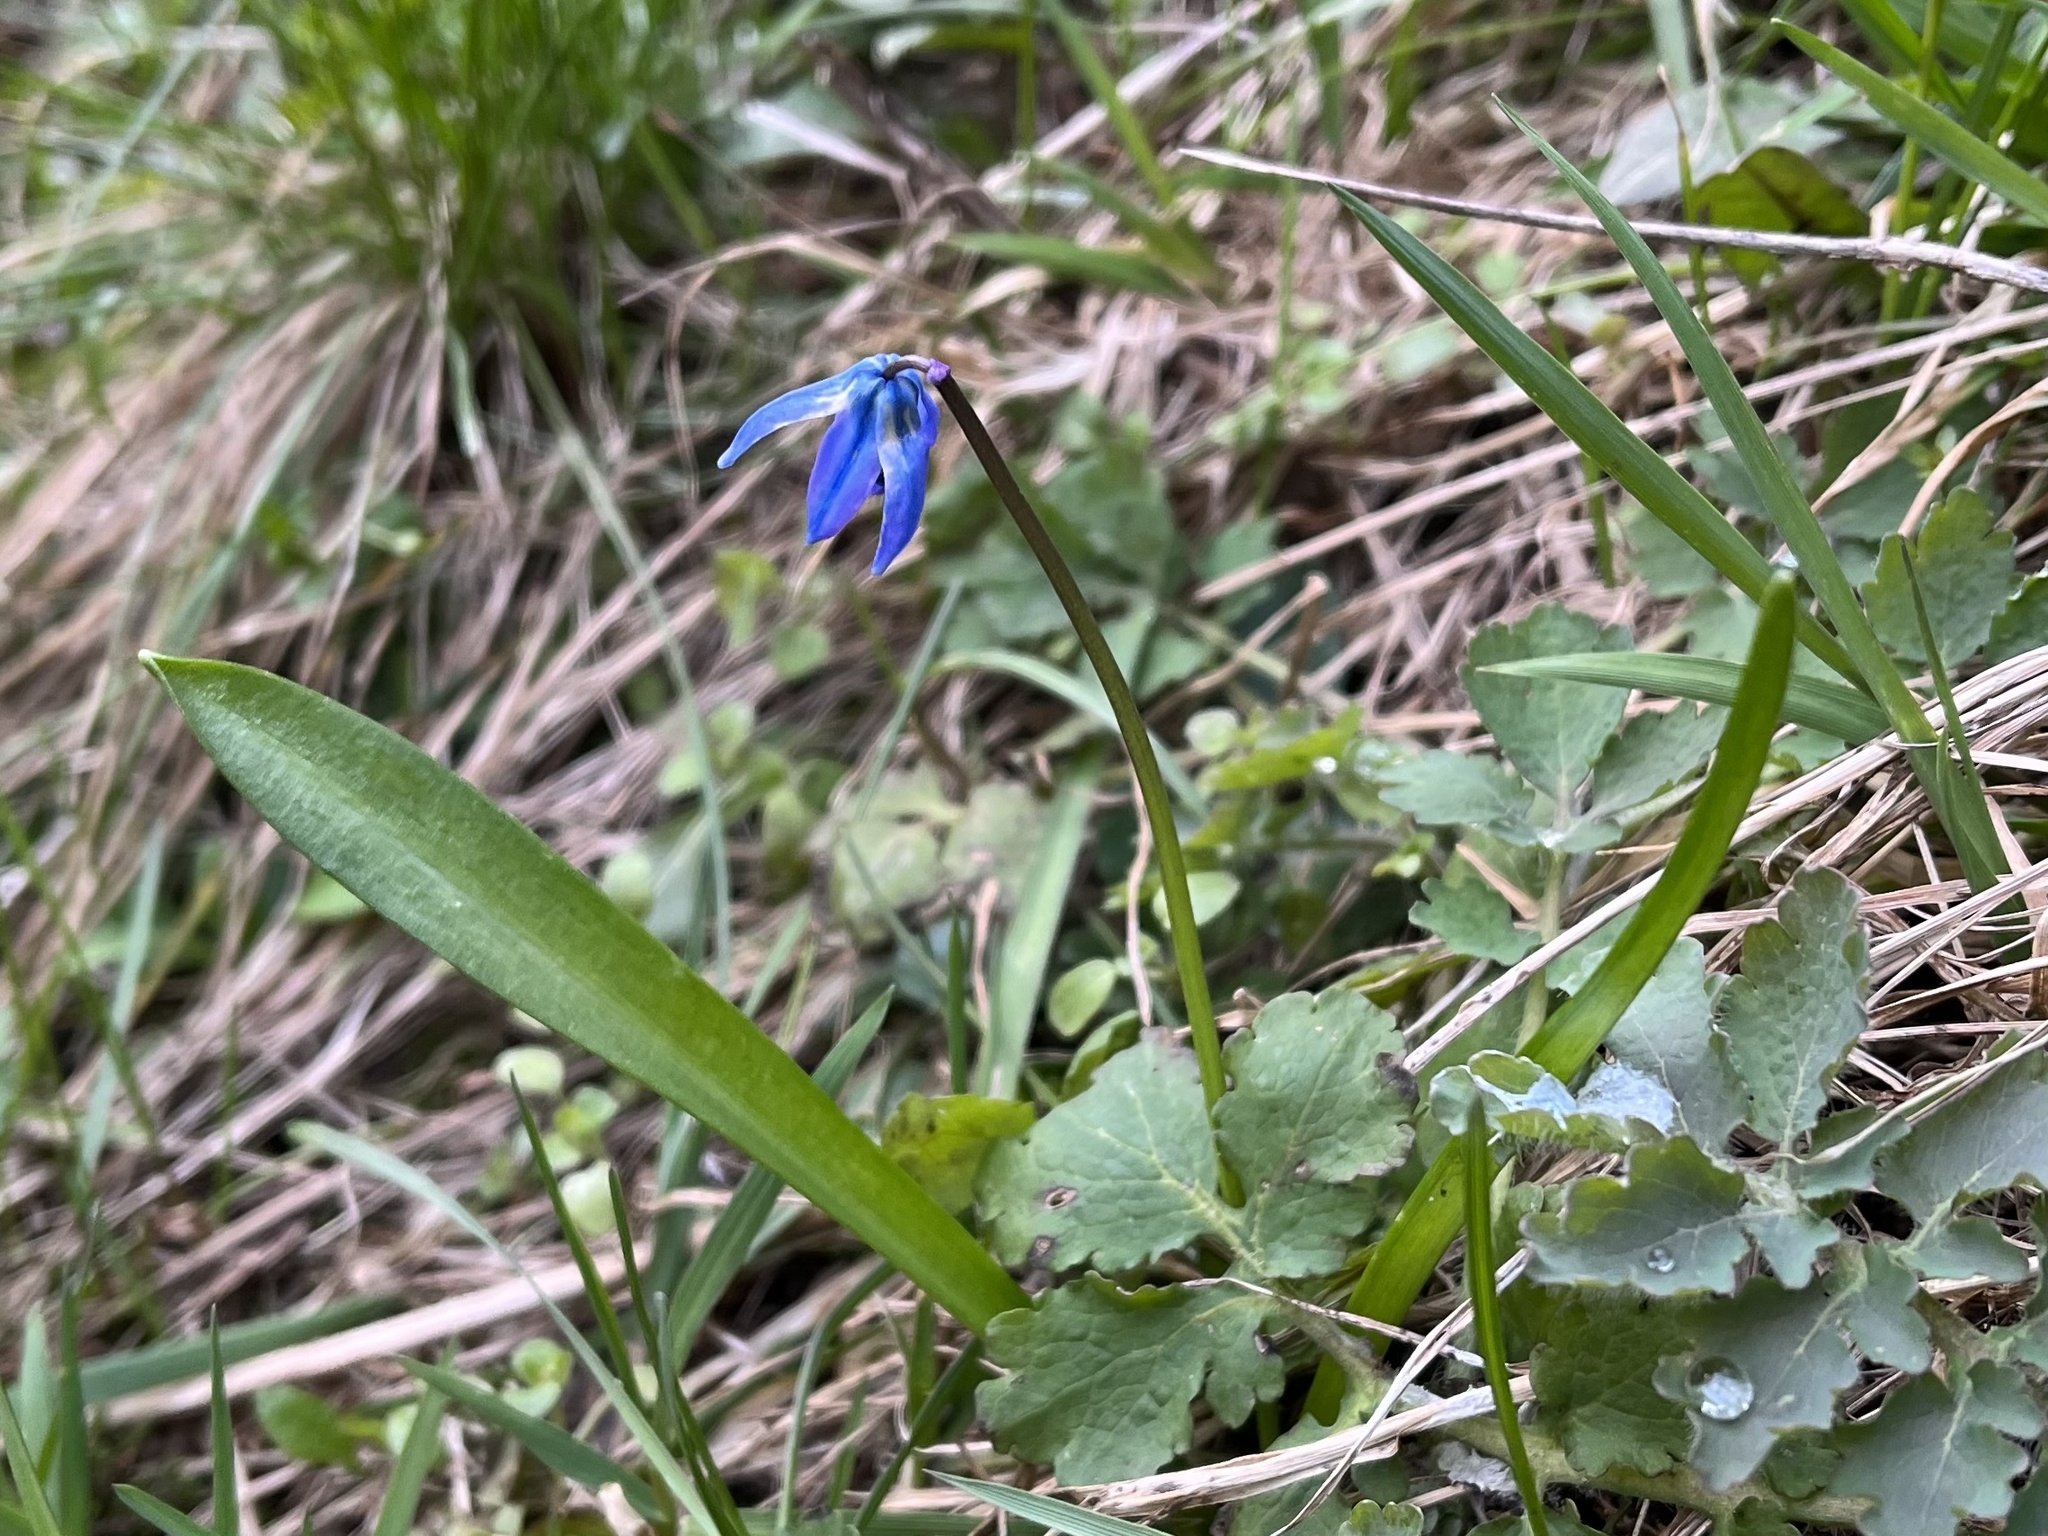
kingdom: Plantae
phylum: Tracheophyta
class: Liliopsida
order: Asparagales
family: Asparagaceae
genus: Scilla
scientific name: Scilla siberica
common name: Siberian squill
